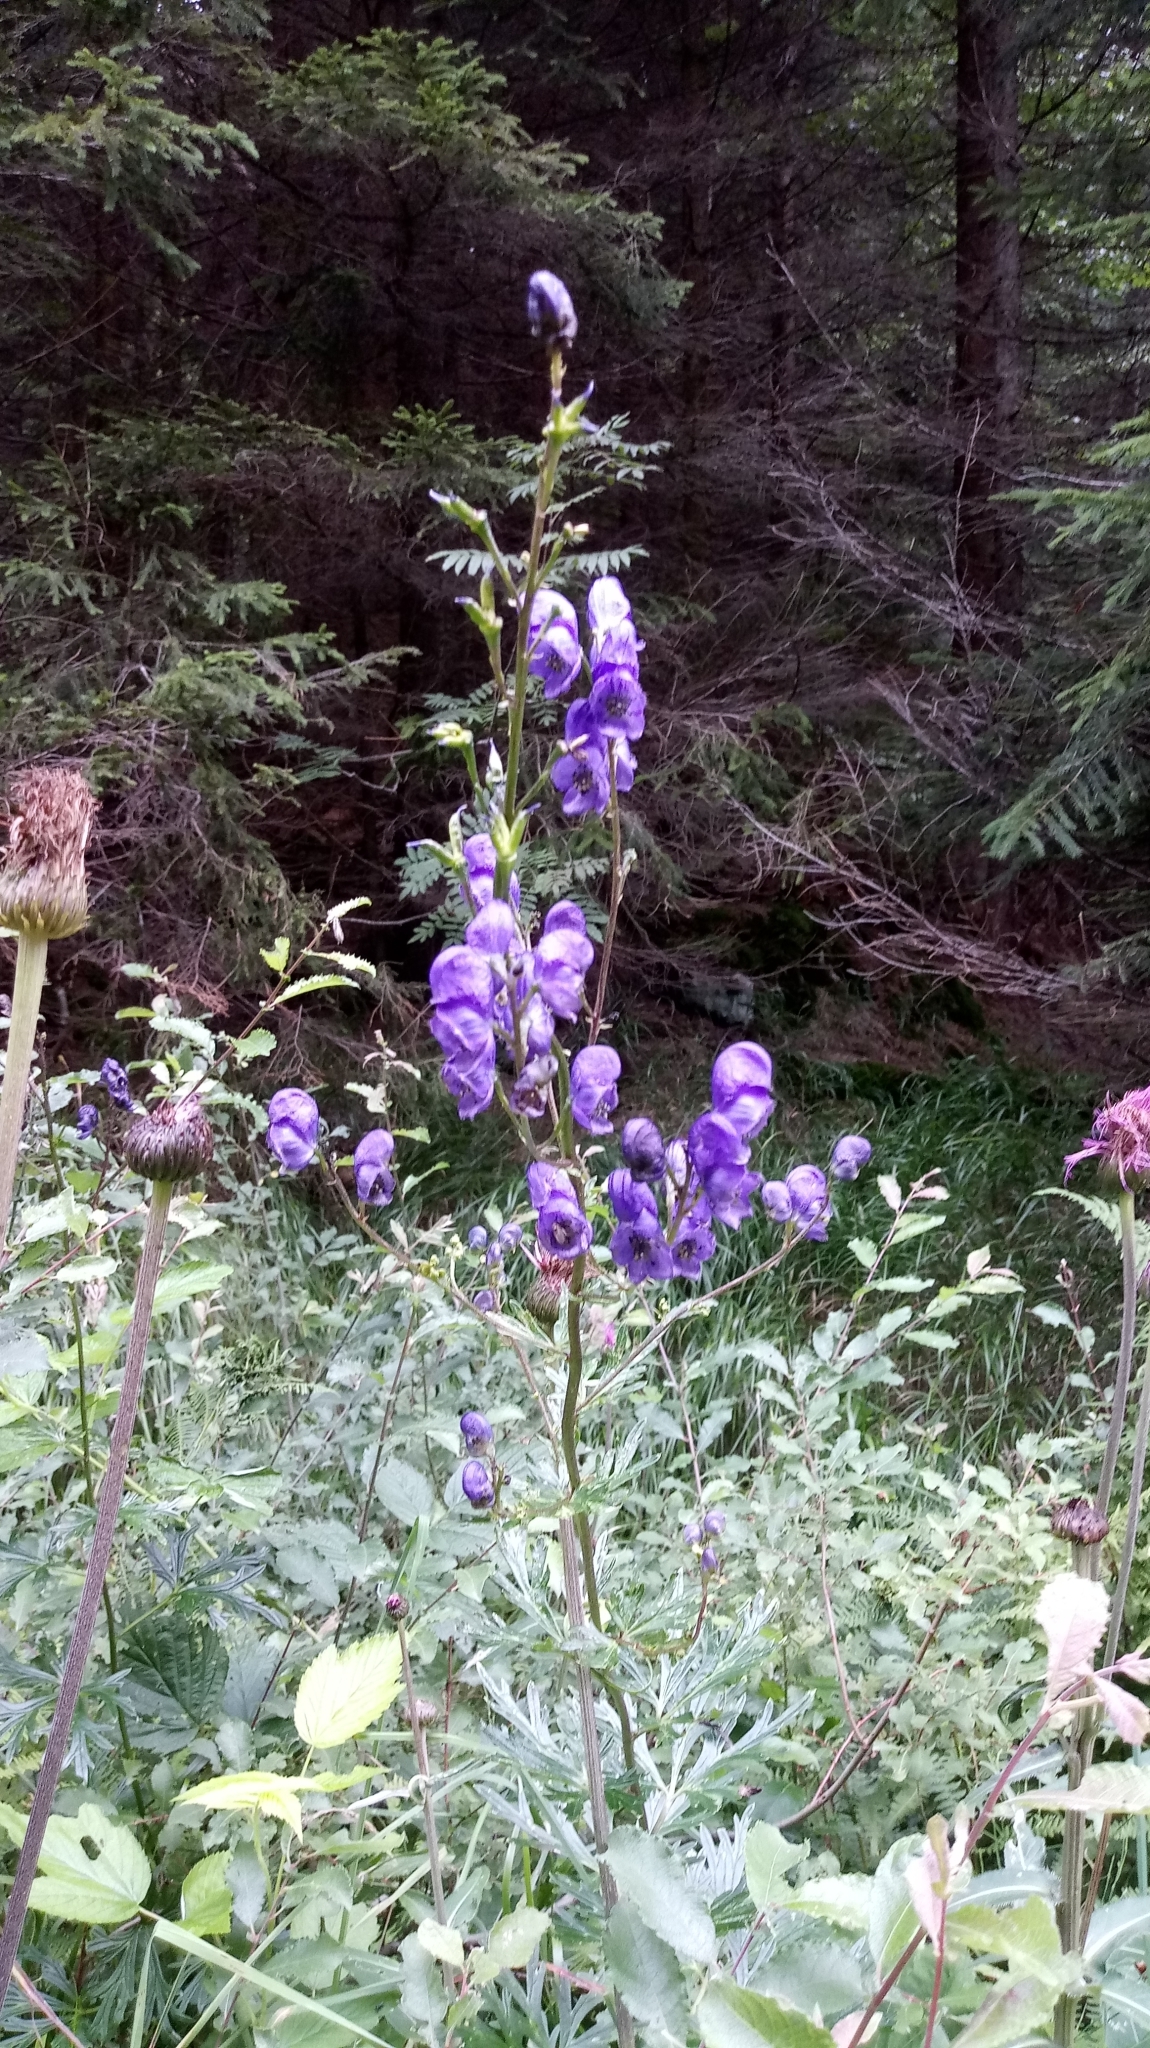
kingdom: Plantae
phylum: Tracheophyta
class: Magnoliopsida
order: Ranunculales
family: Ranunculaceae
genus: Aconitum
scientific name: Aconitum plicatum
